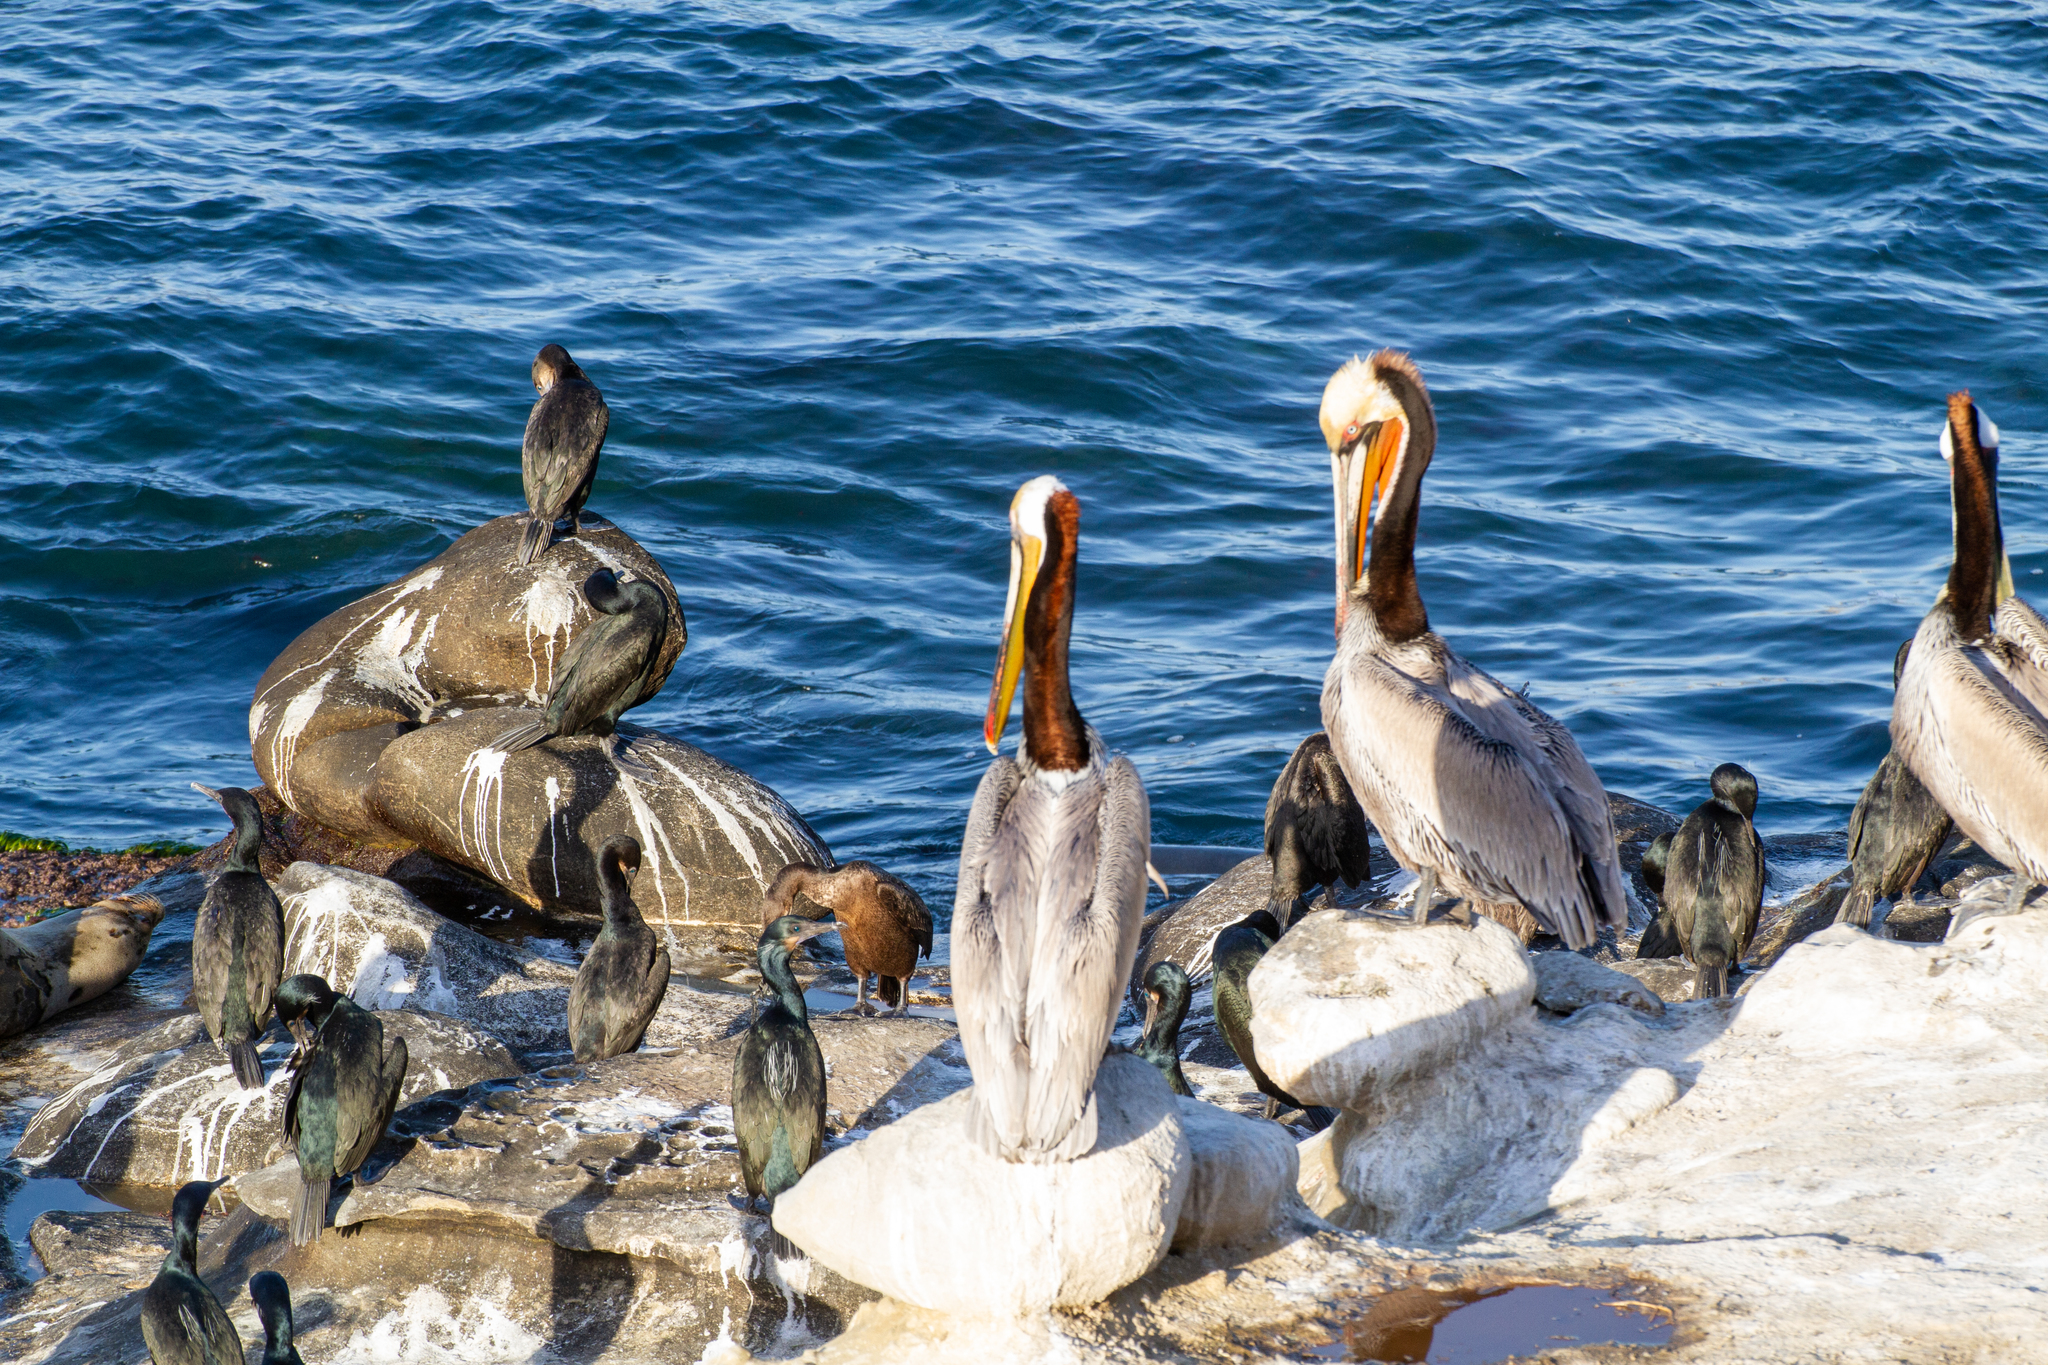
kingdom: Animalia
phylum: Chordata
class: Aves
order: Pelecaniformes
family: Pelecanidae
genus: Pelecanus
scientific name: Pelecanus occidentalis
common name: Brown pelican
